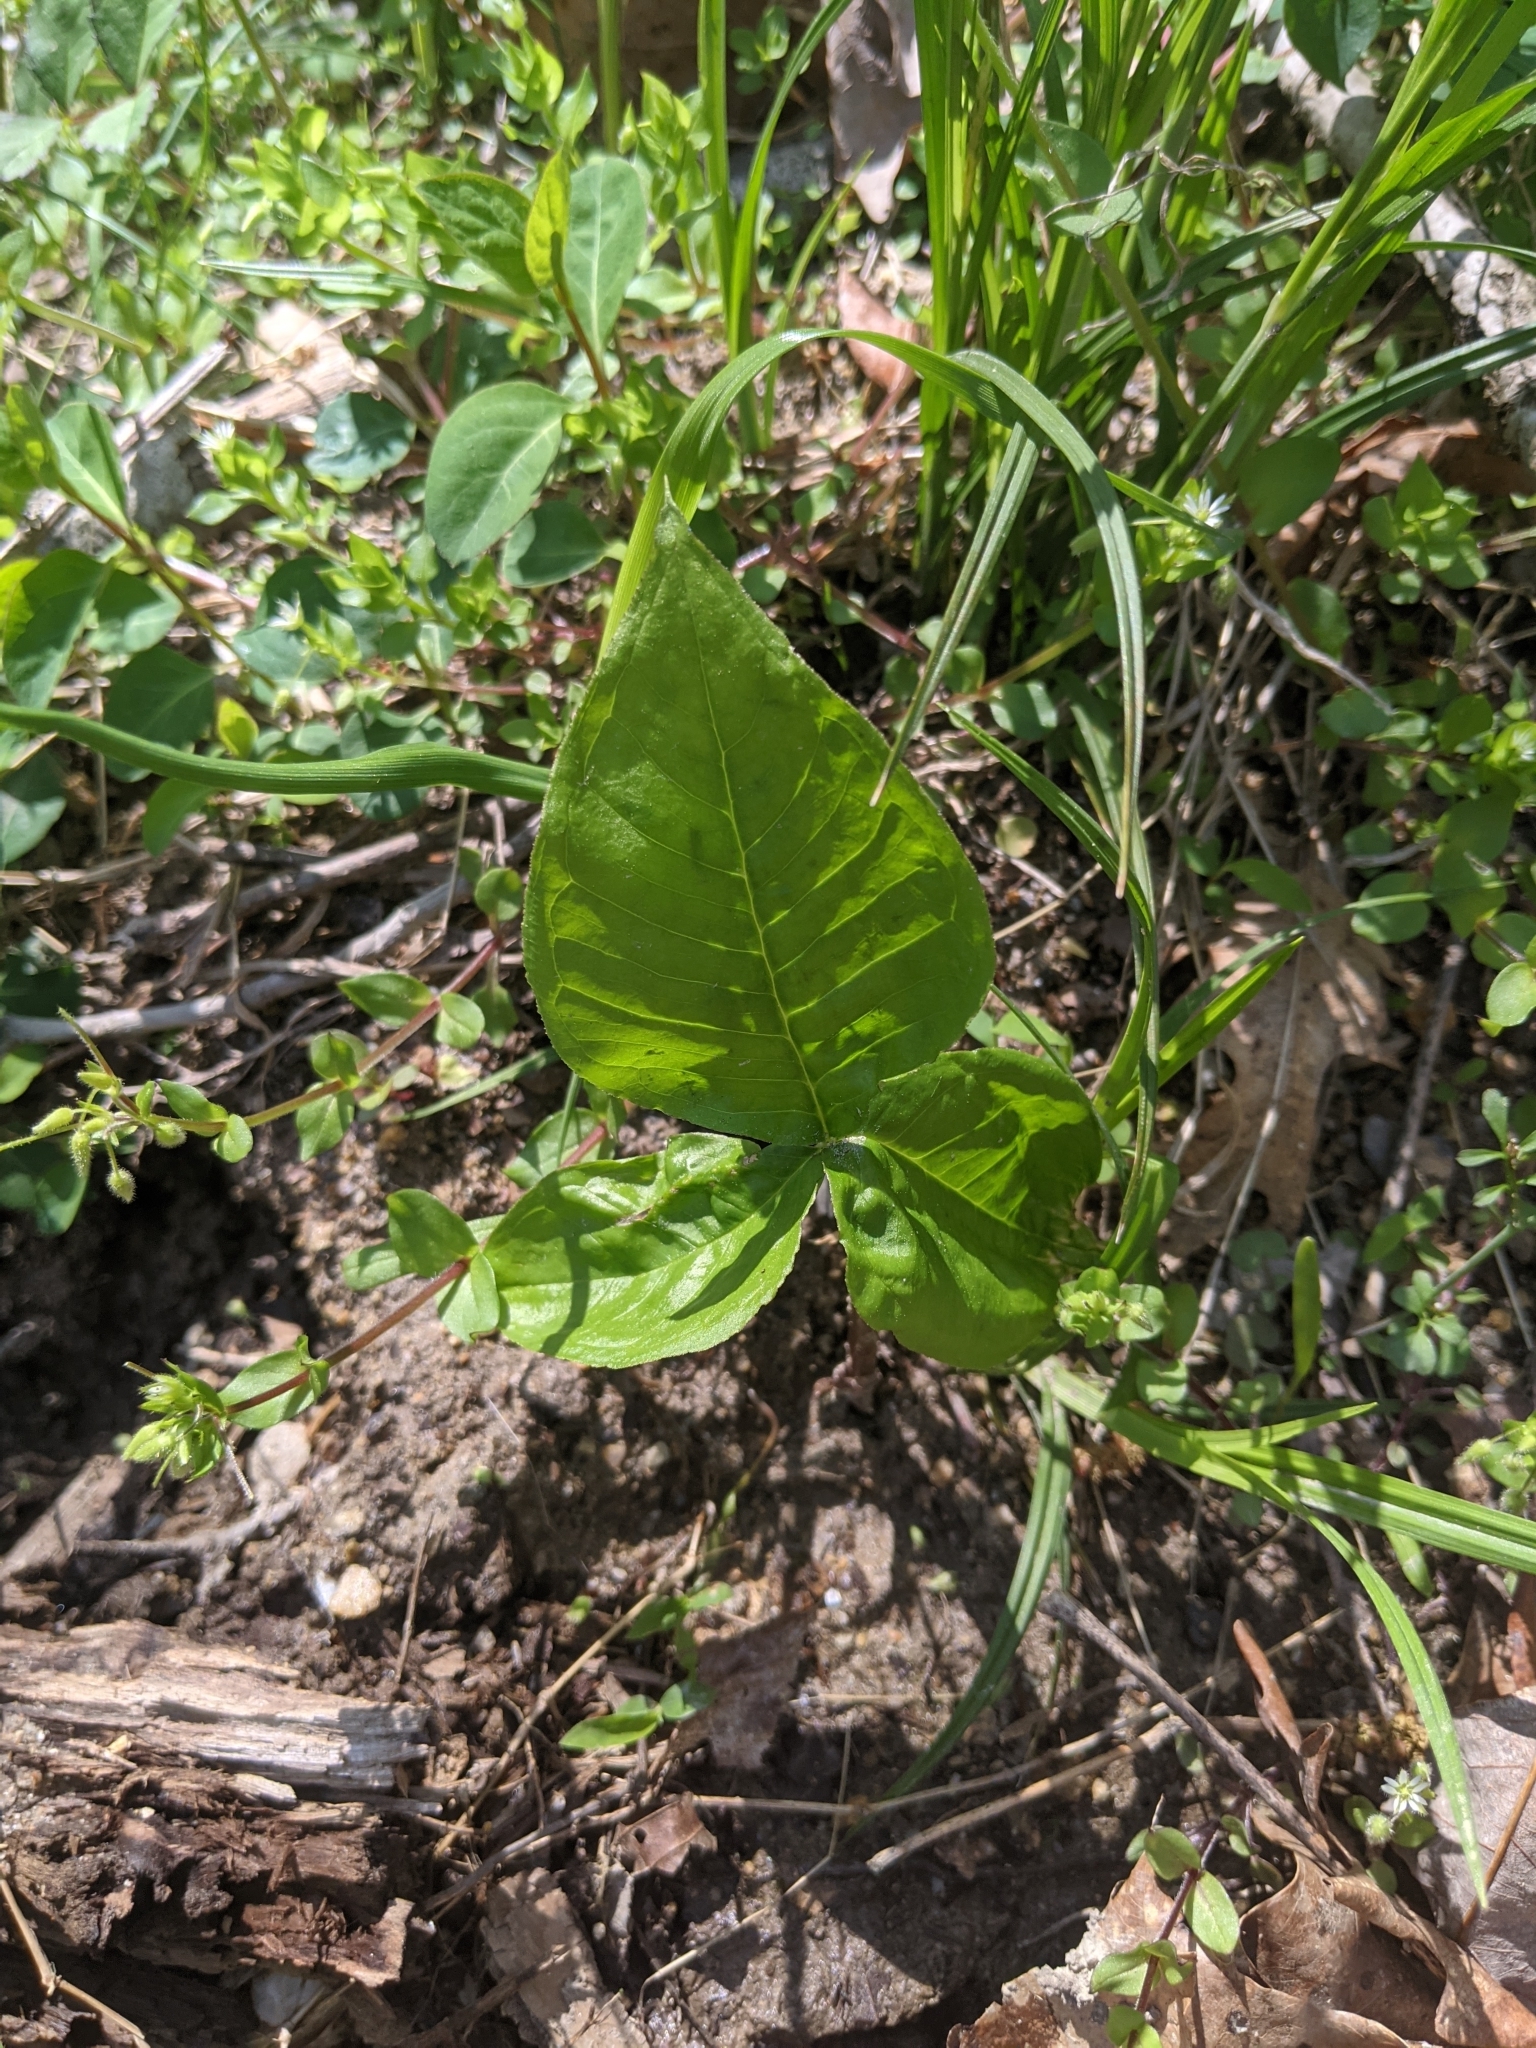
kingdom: Plantae
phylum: Tracheophyta
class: Liliopsida
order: Alismatales
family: Araceae
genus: Arisaema
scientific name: Arisaema triphyllum
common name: Jack-in-the-pulpit
